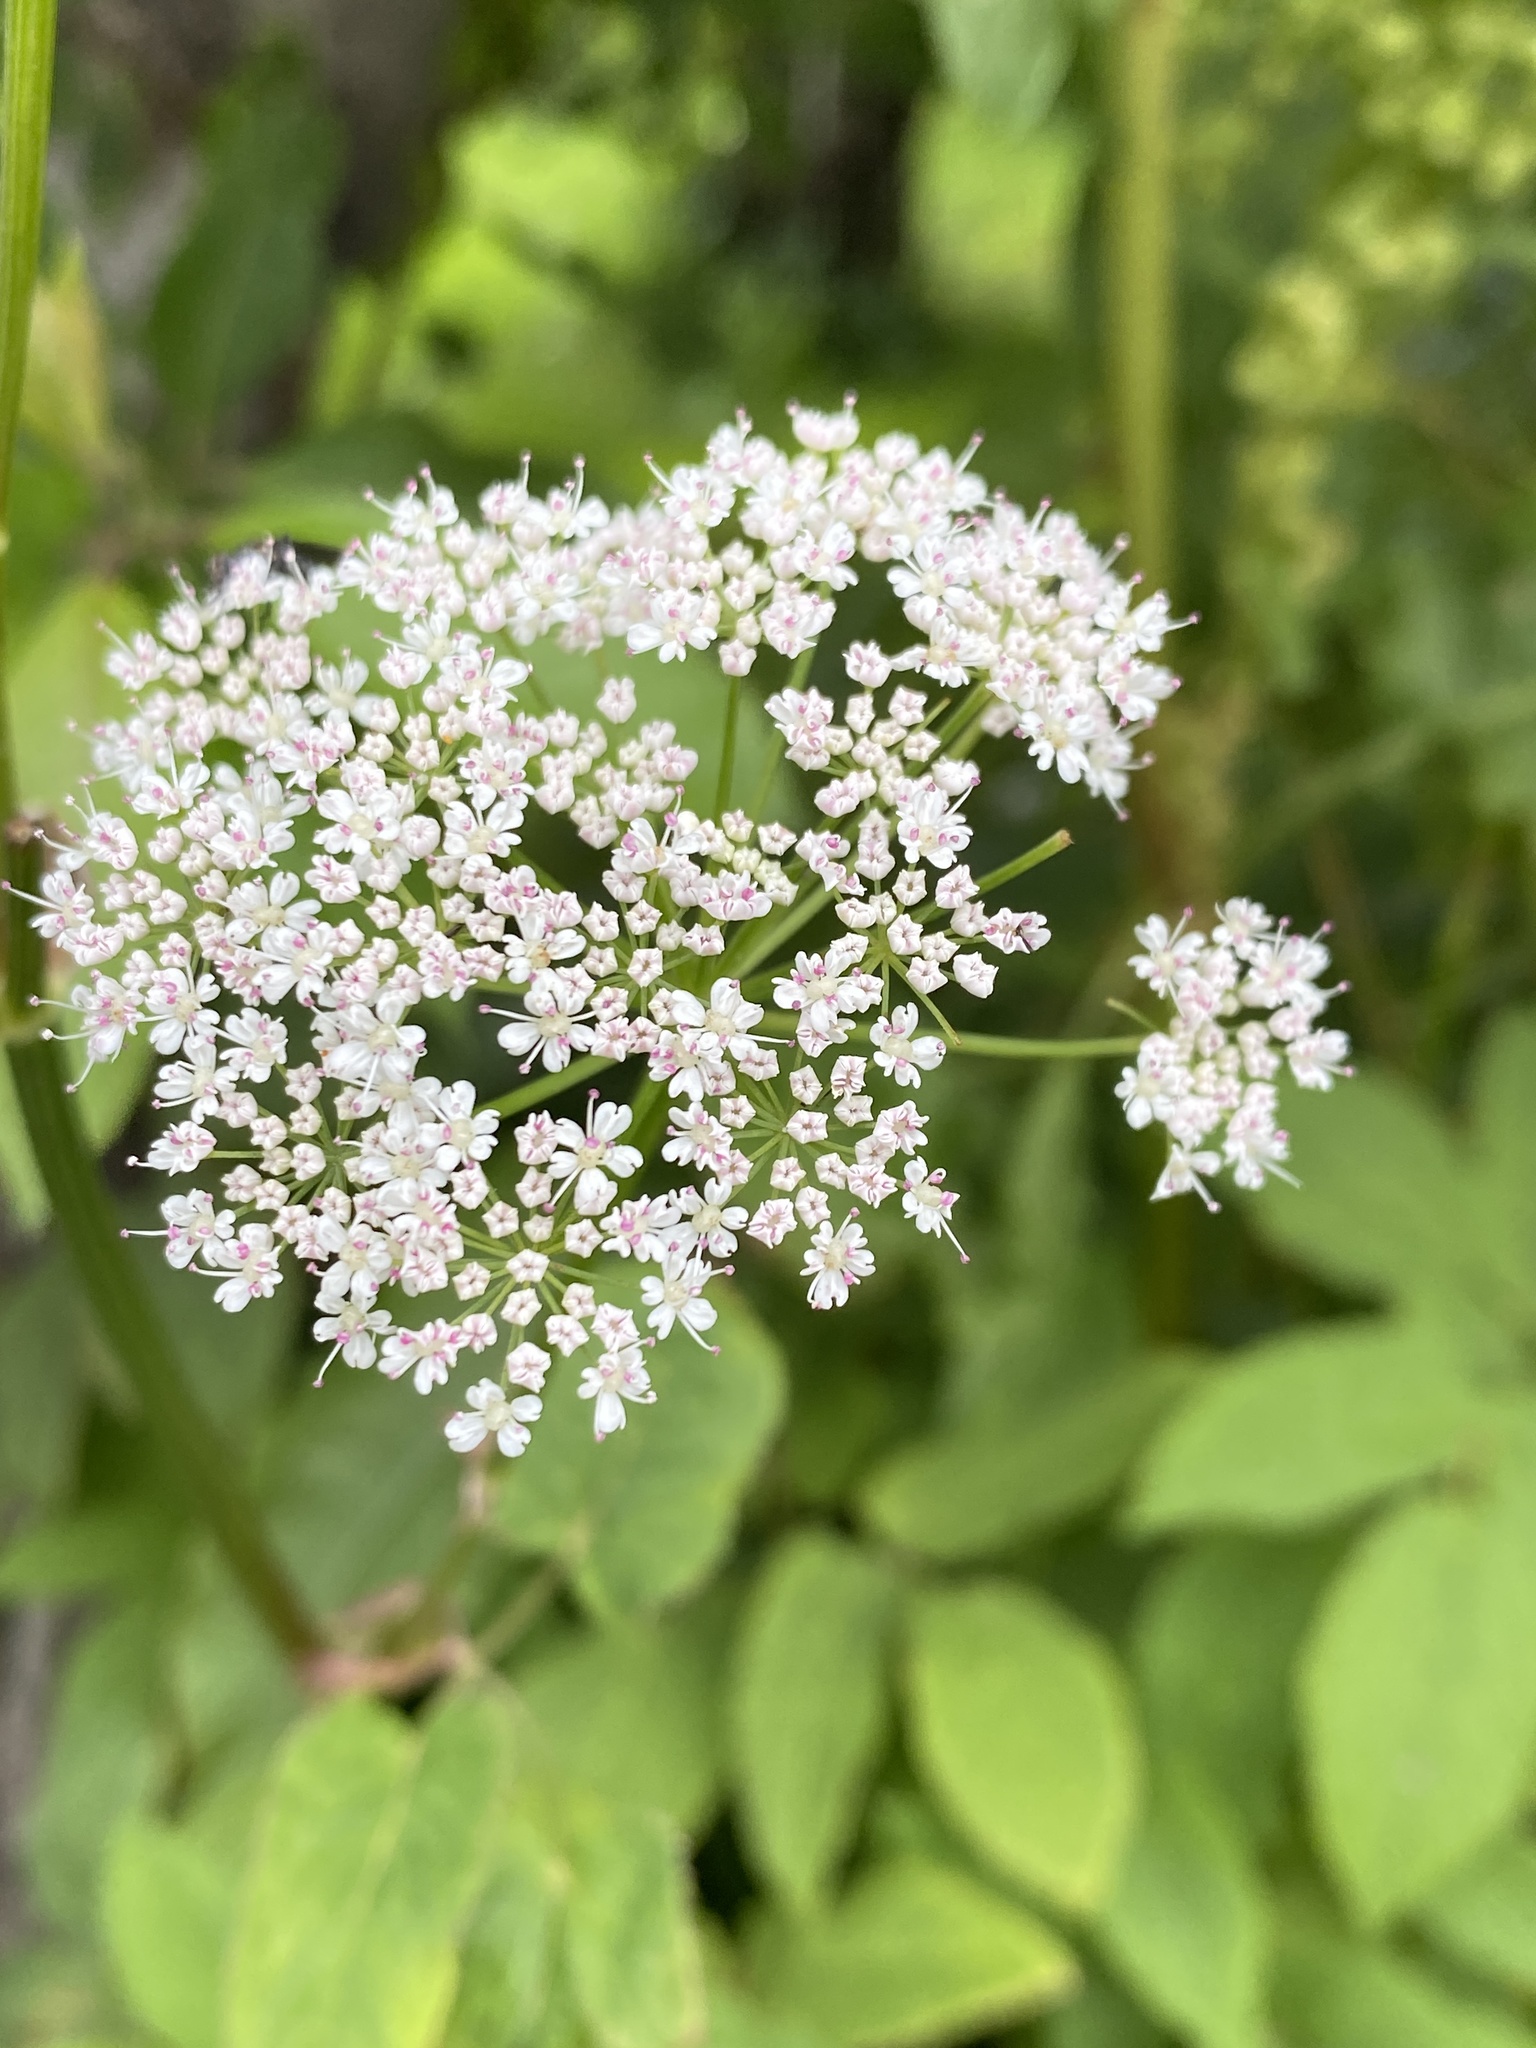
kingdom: Plantae
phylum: Tracheophyta
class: Magnoliopsida
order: Apiales
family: Apiaceae
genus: Aegopodium
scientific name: Aegopodium podagraria
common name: Ground-elder
